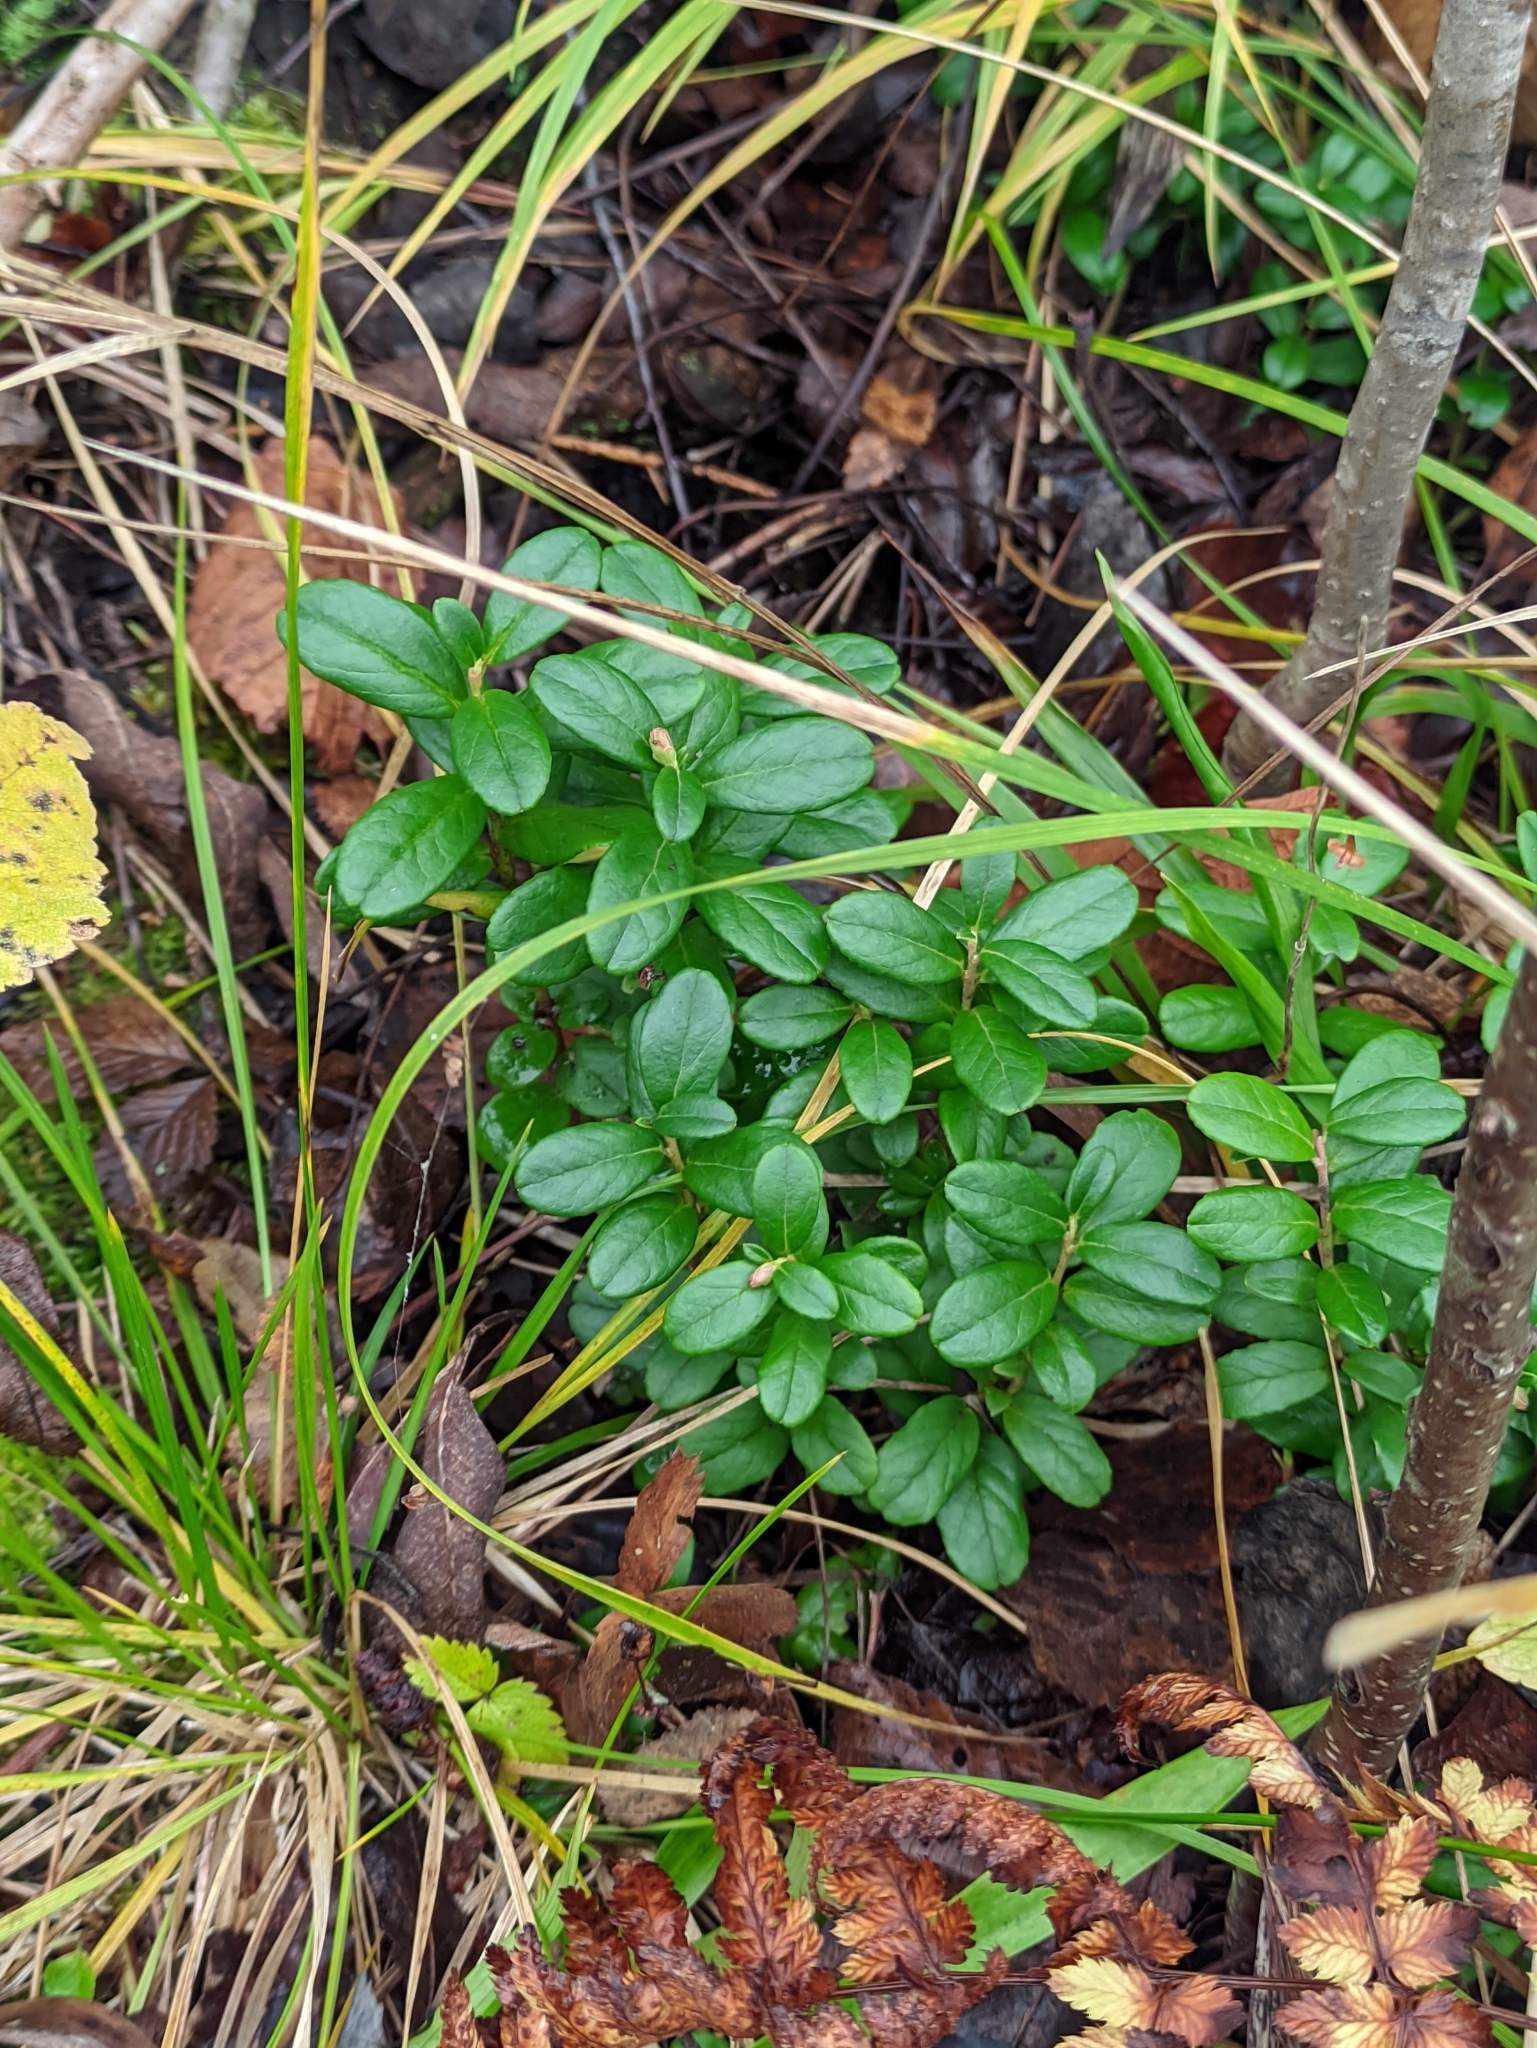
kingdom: Plantae
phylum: Tracheophyta
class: Magnoliopsida
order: Ericales
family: Ericaceae
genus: Vaccinium
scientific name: Vaccinium vitis-idaea
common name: Cowberry
